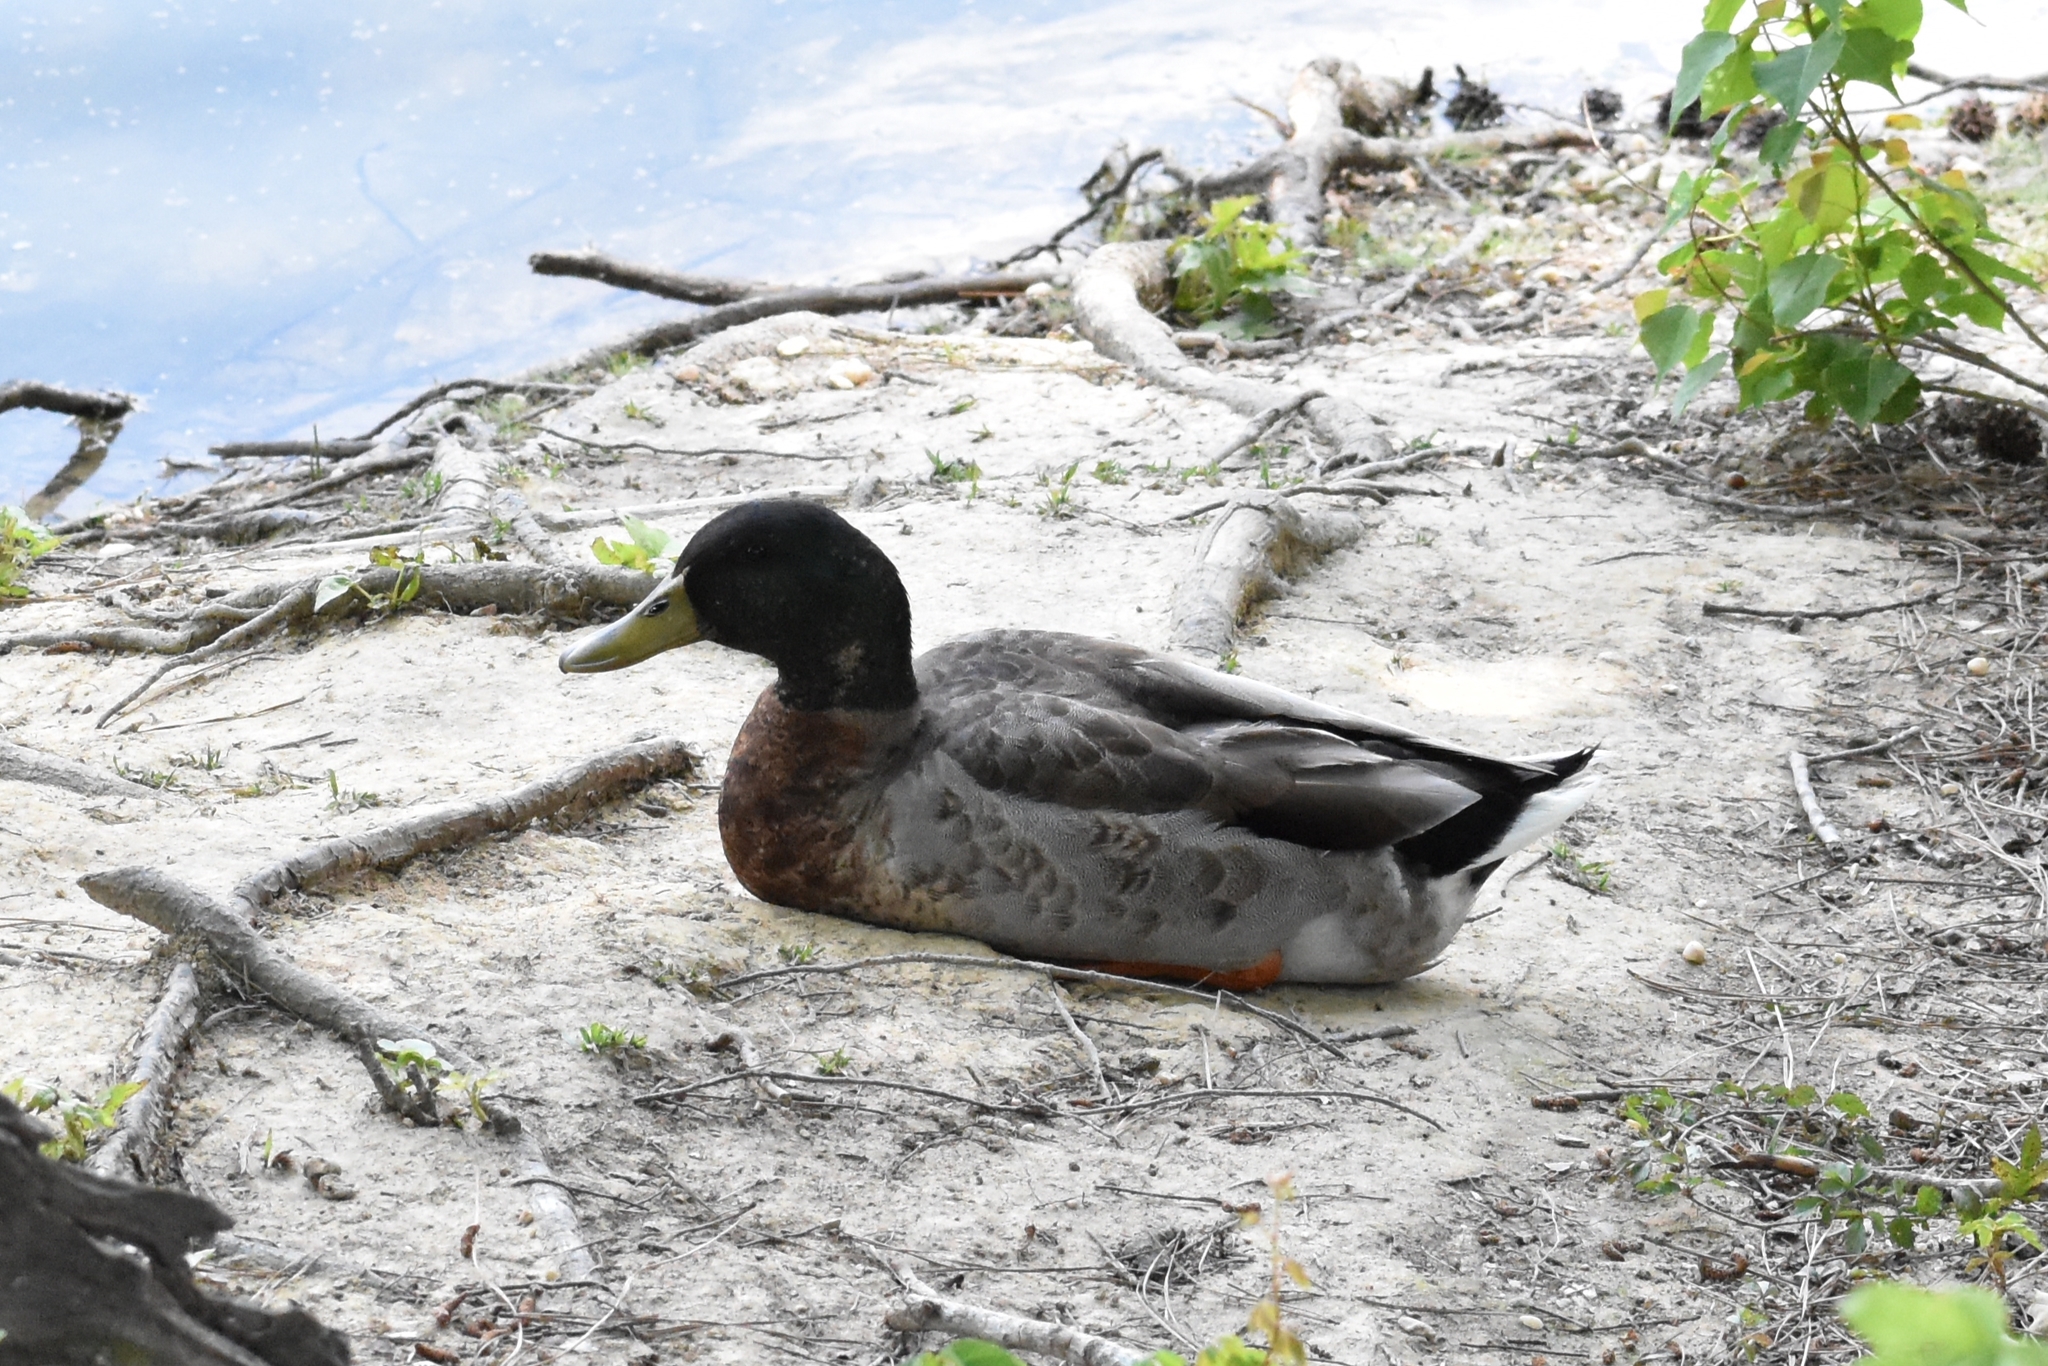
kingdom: Animalia
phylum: Chordata
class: Aves
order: Anseriformes
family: Anatidae
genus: Anas
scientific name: Anas platyrhynchos
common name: Mallard
